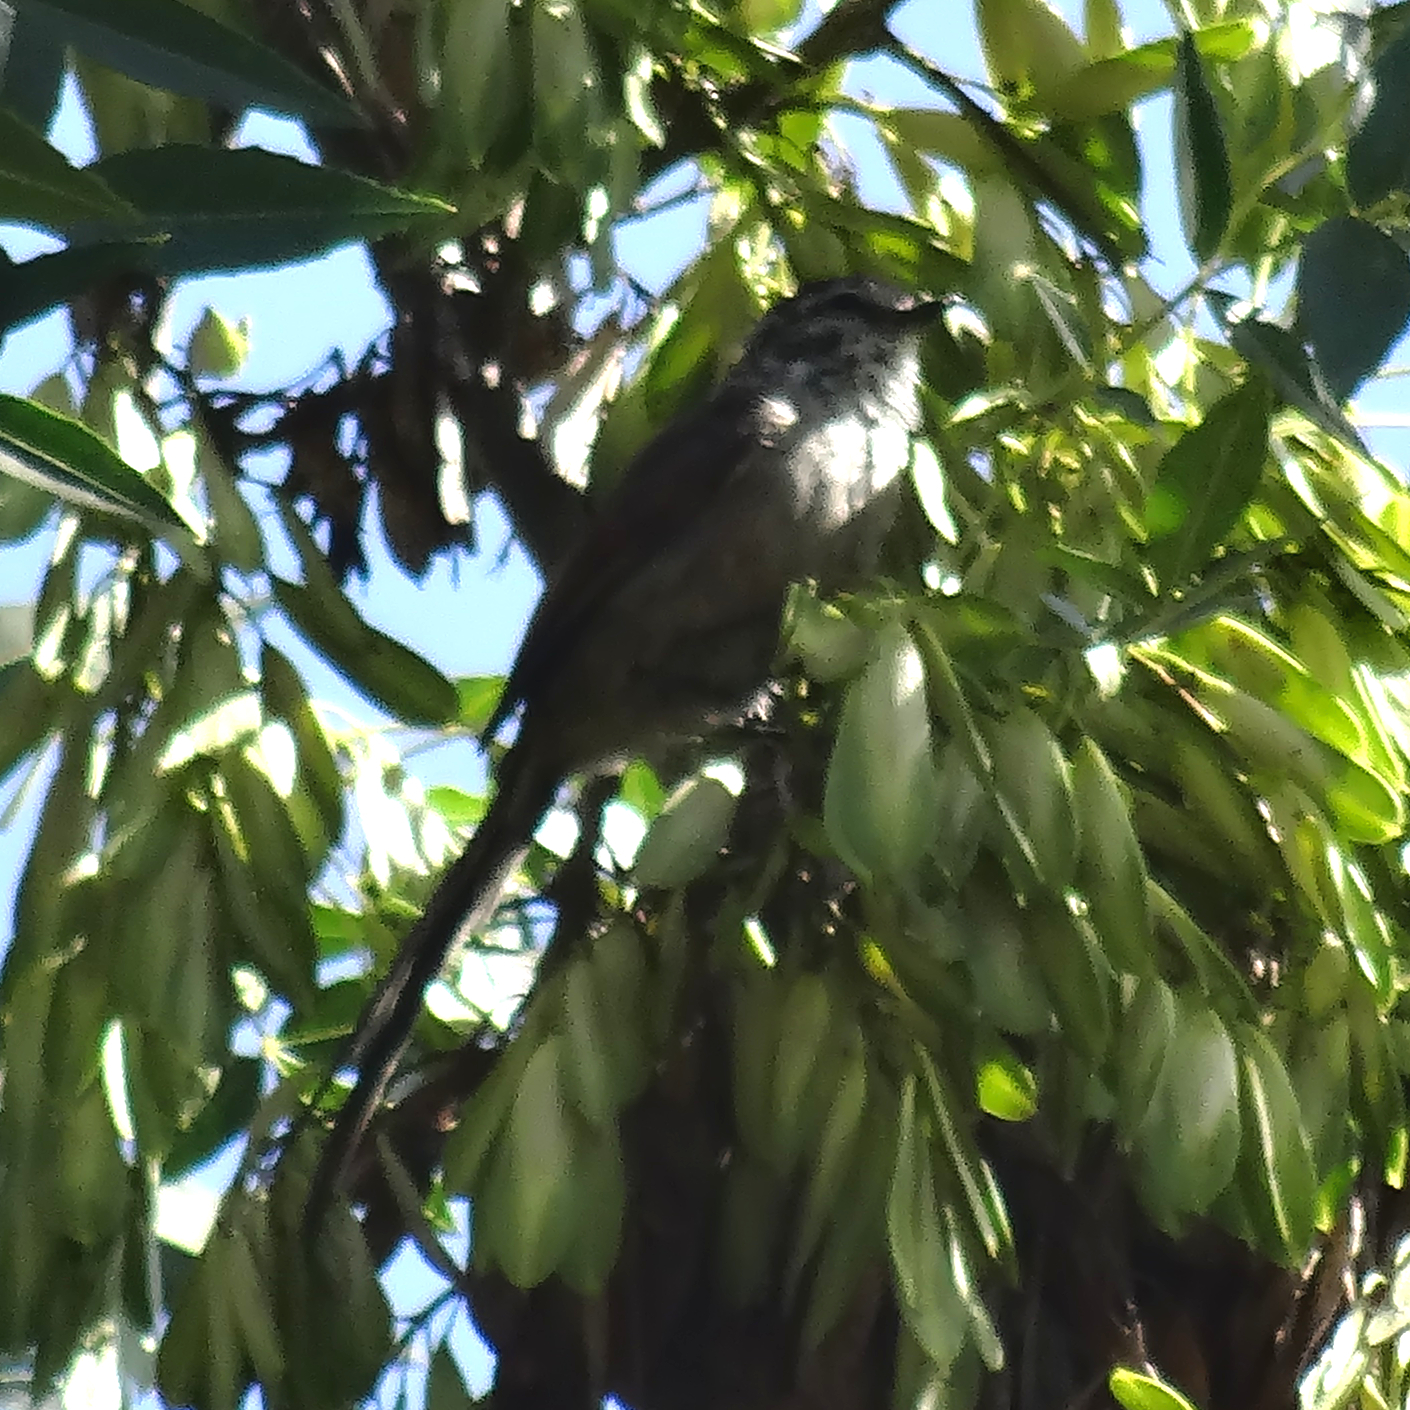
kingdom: Animalia
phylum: Chordata
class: Aves
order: Passeriformes
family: Furnariidae
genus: Leptasthenura
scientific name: Leptasthenura aegithaloides
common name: Plain-mantled tit-spinetail
